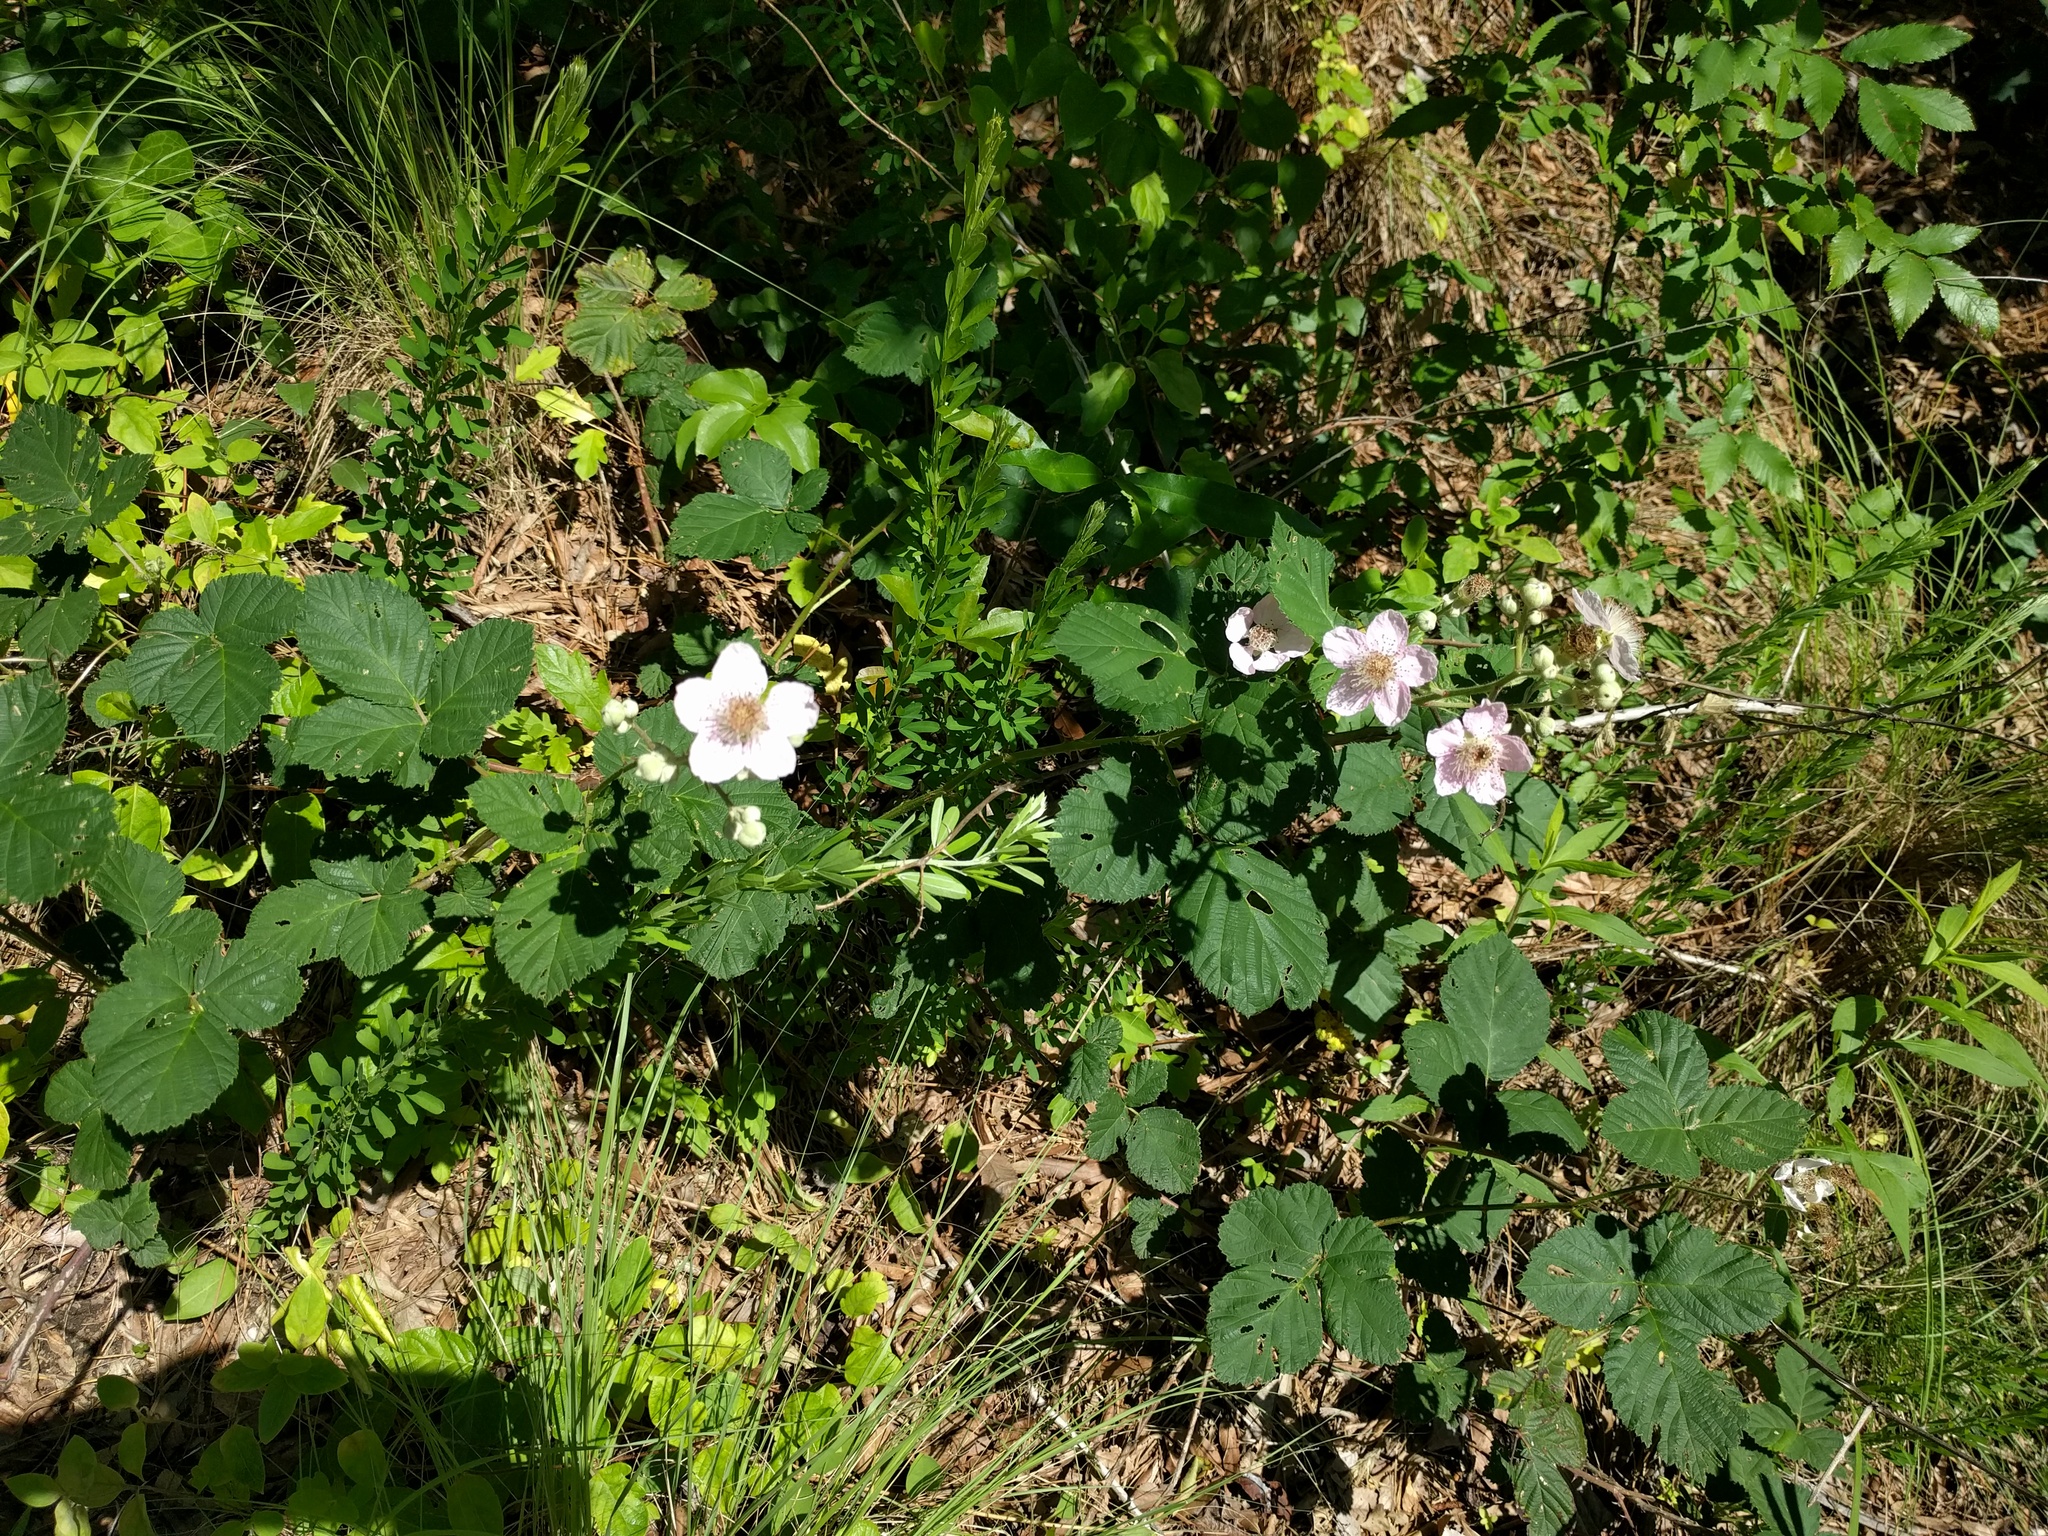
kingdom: Plantae
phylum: Tracheophyta
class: Magnoliopsida
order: Rosales
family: Rosaceae
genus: Rosa
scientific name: Rosa multiflora
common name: Multiflora rose
